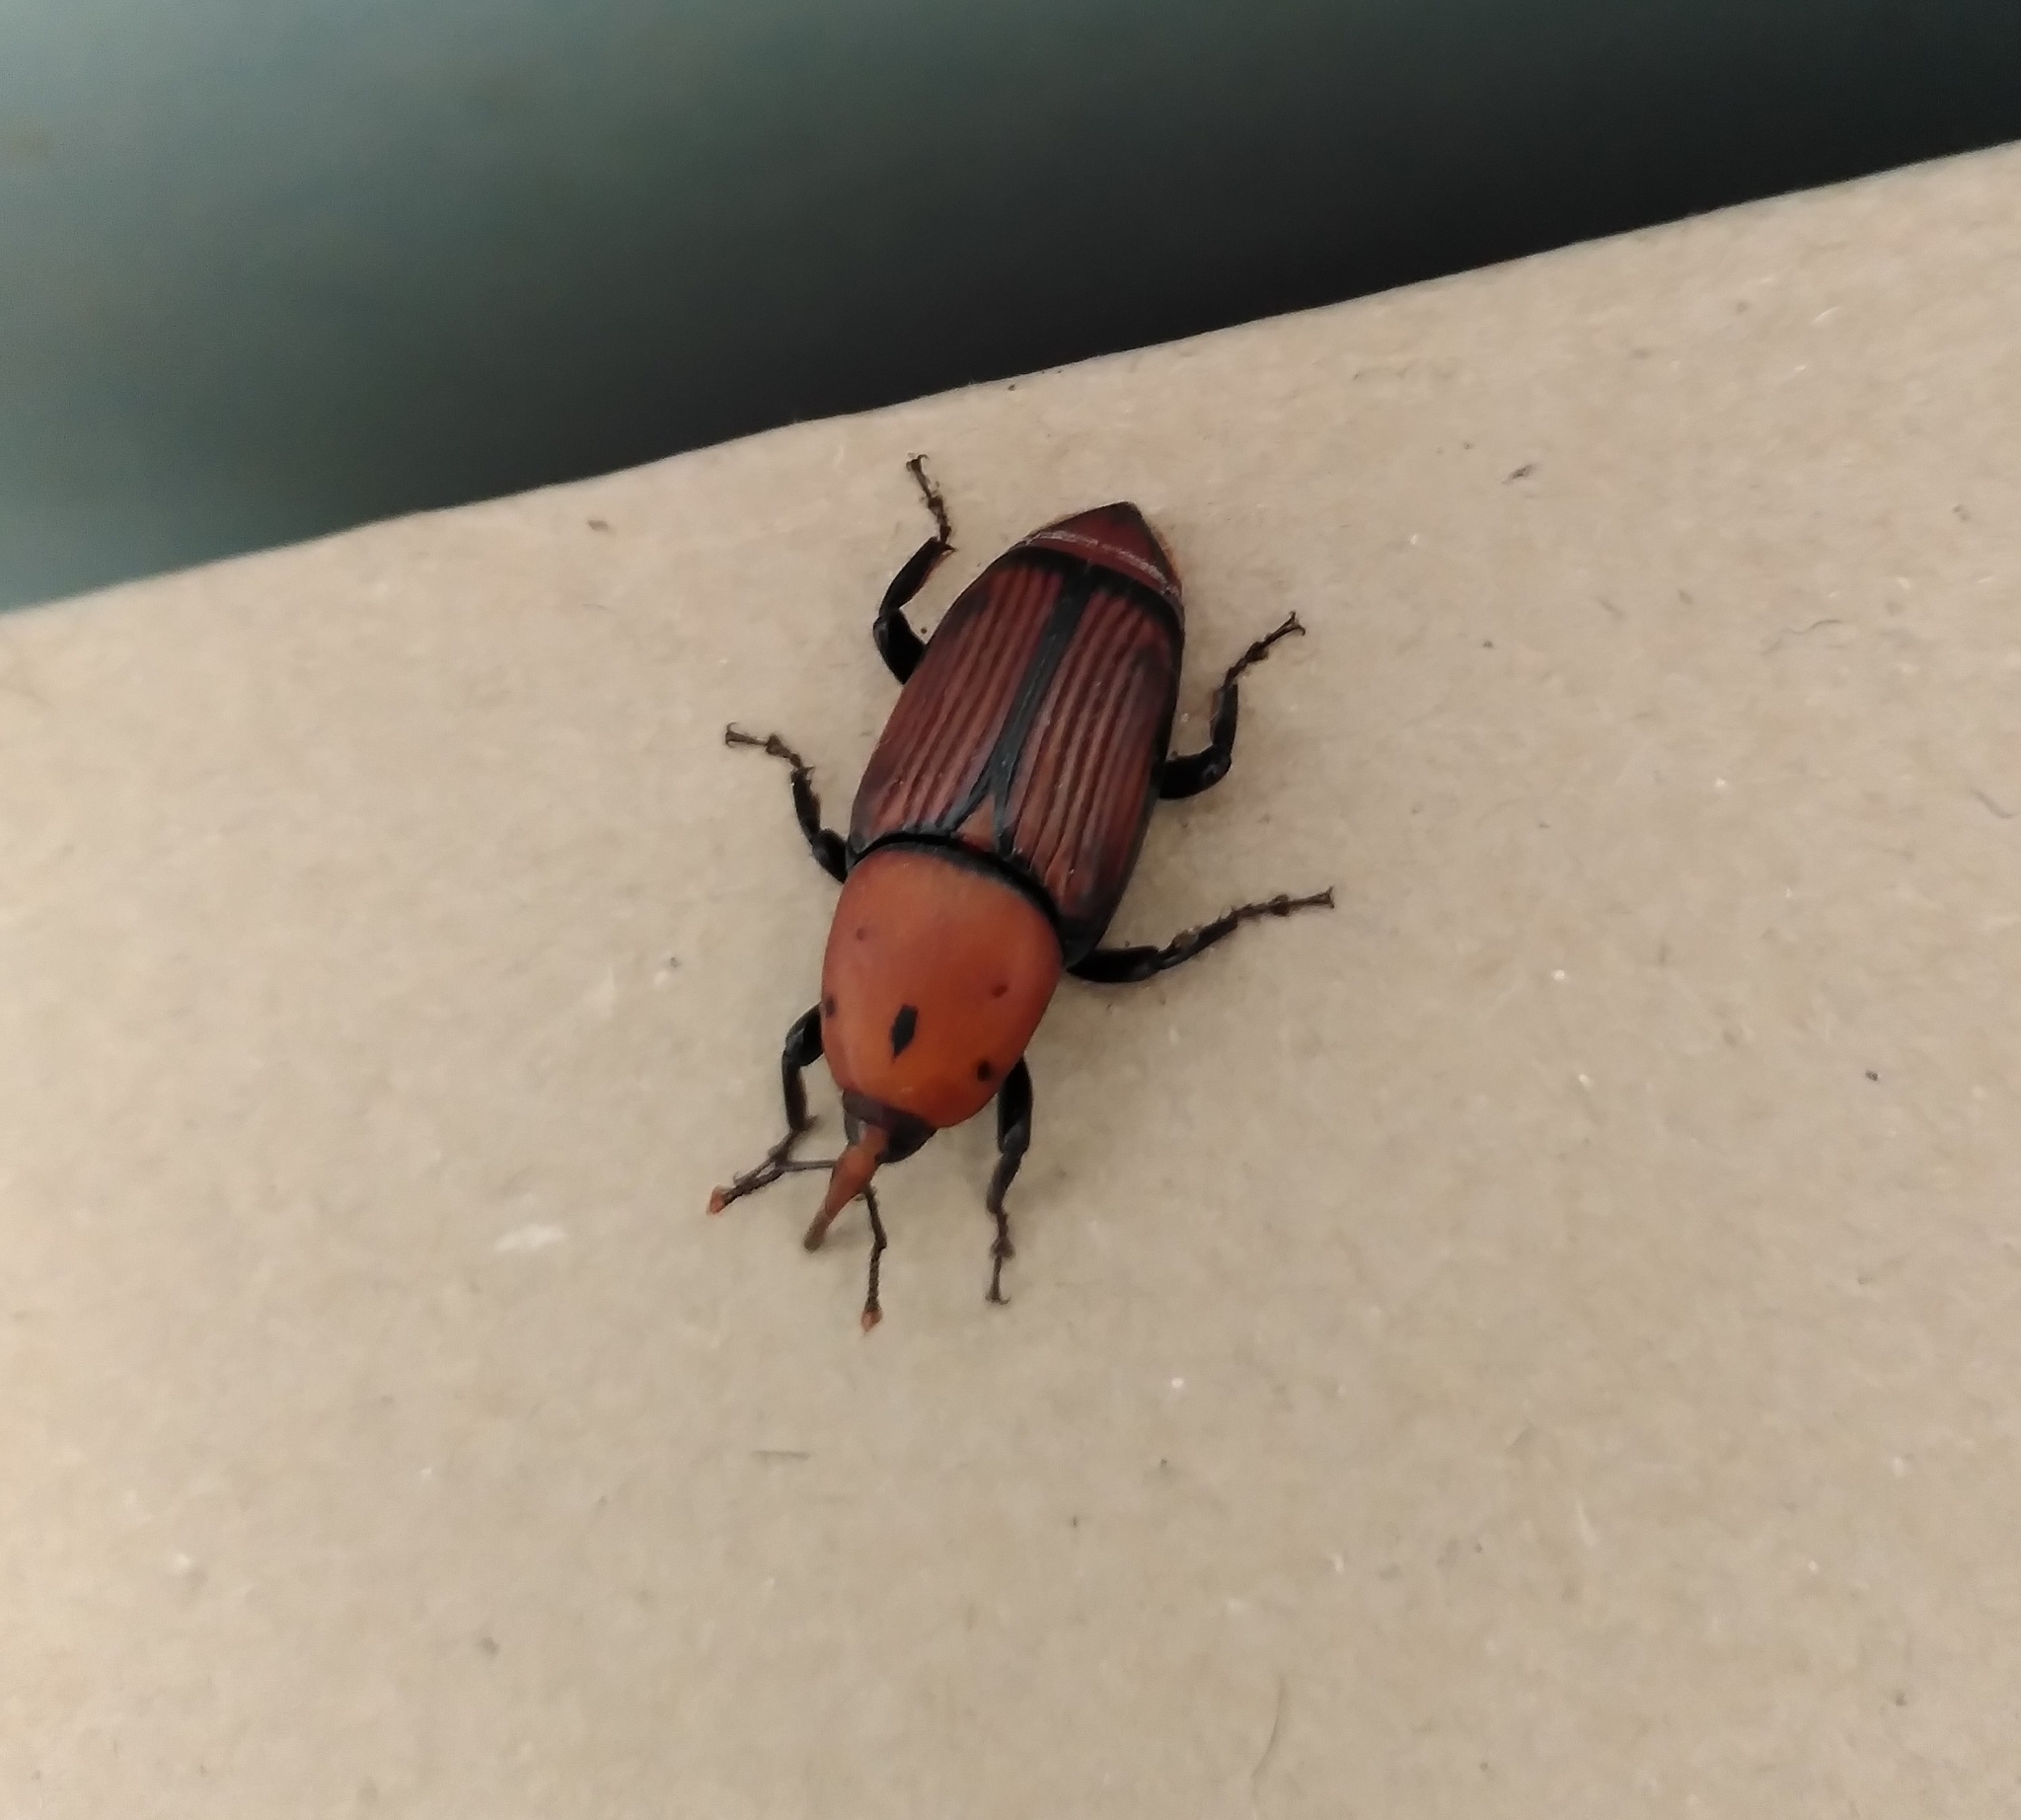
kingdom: Animalia
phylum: Arthropoda
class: Insecta
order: Coleoptera
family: Dryophthoridae
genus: Rhynchophorus
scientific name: Rhynchophorus ferrugineus
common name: Red palm weevil
